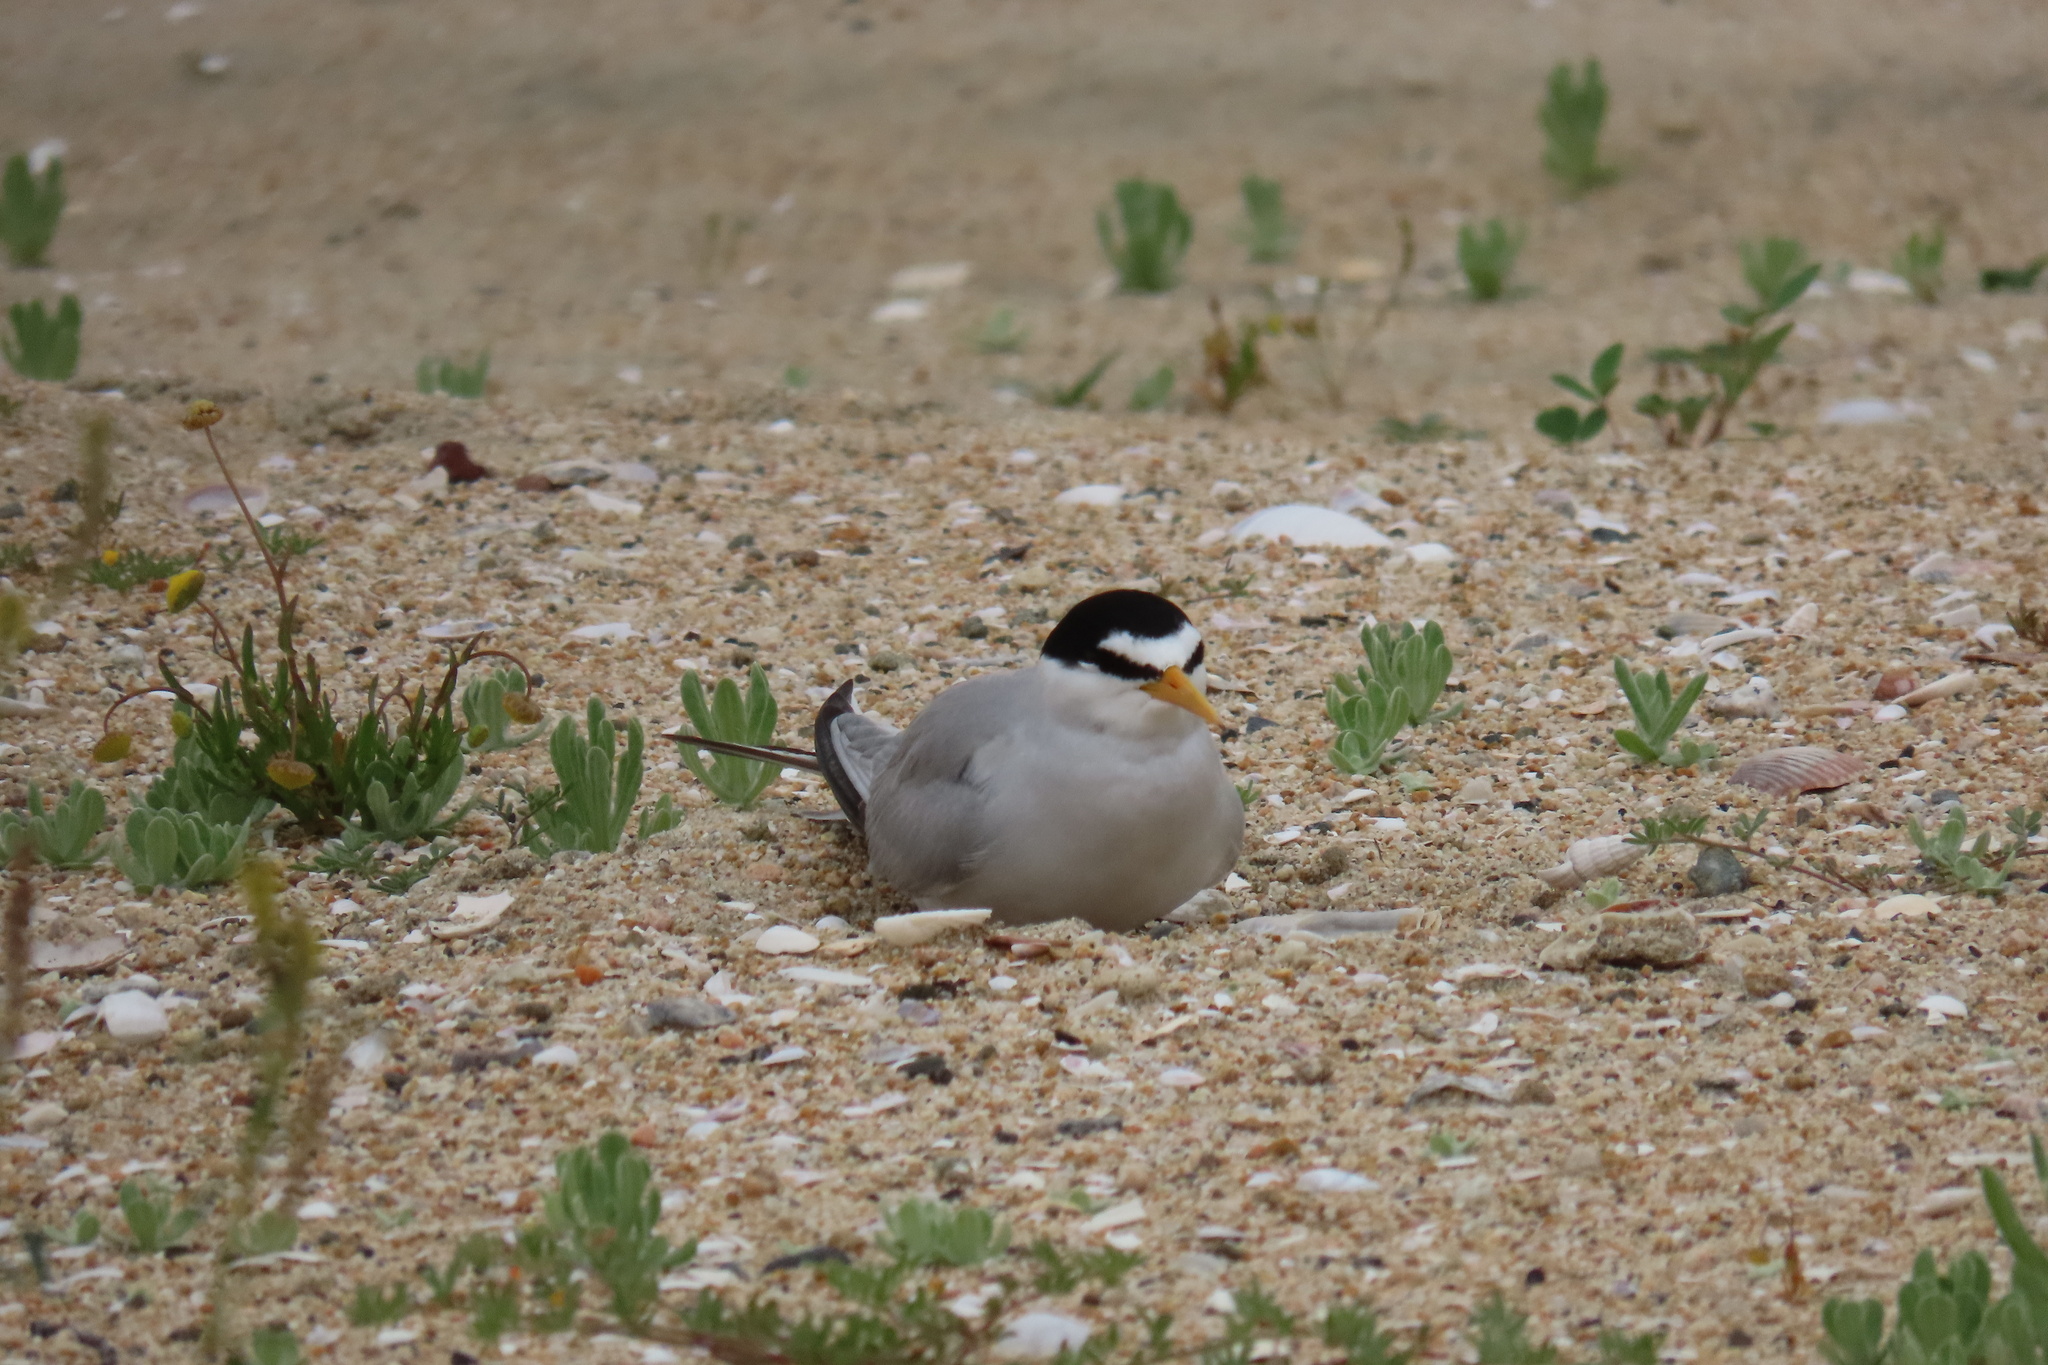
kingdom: Animalia
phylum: Chordata
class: Aves
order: Charadriiformes
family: Laridae
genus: Sternula
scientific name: Sternula antillarum
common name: Least tern
